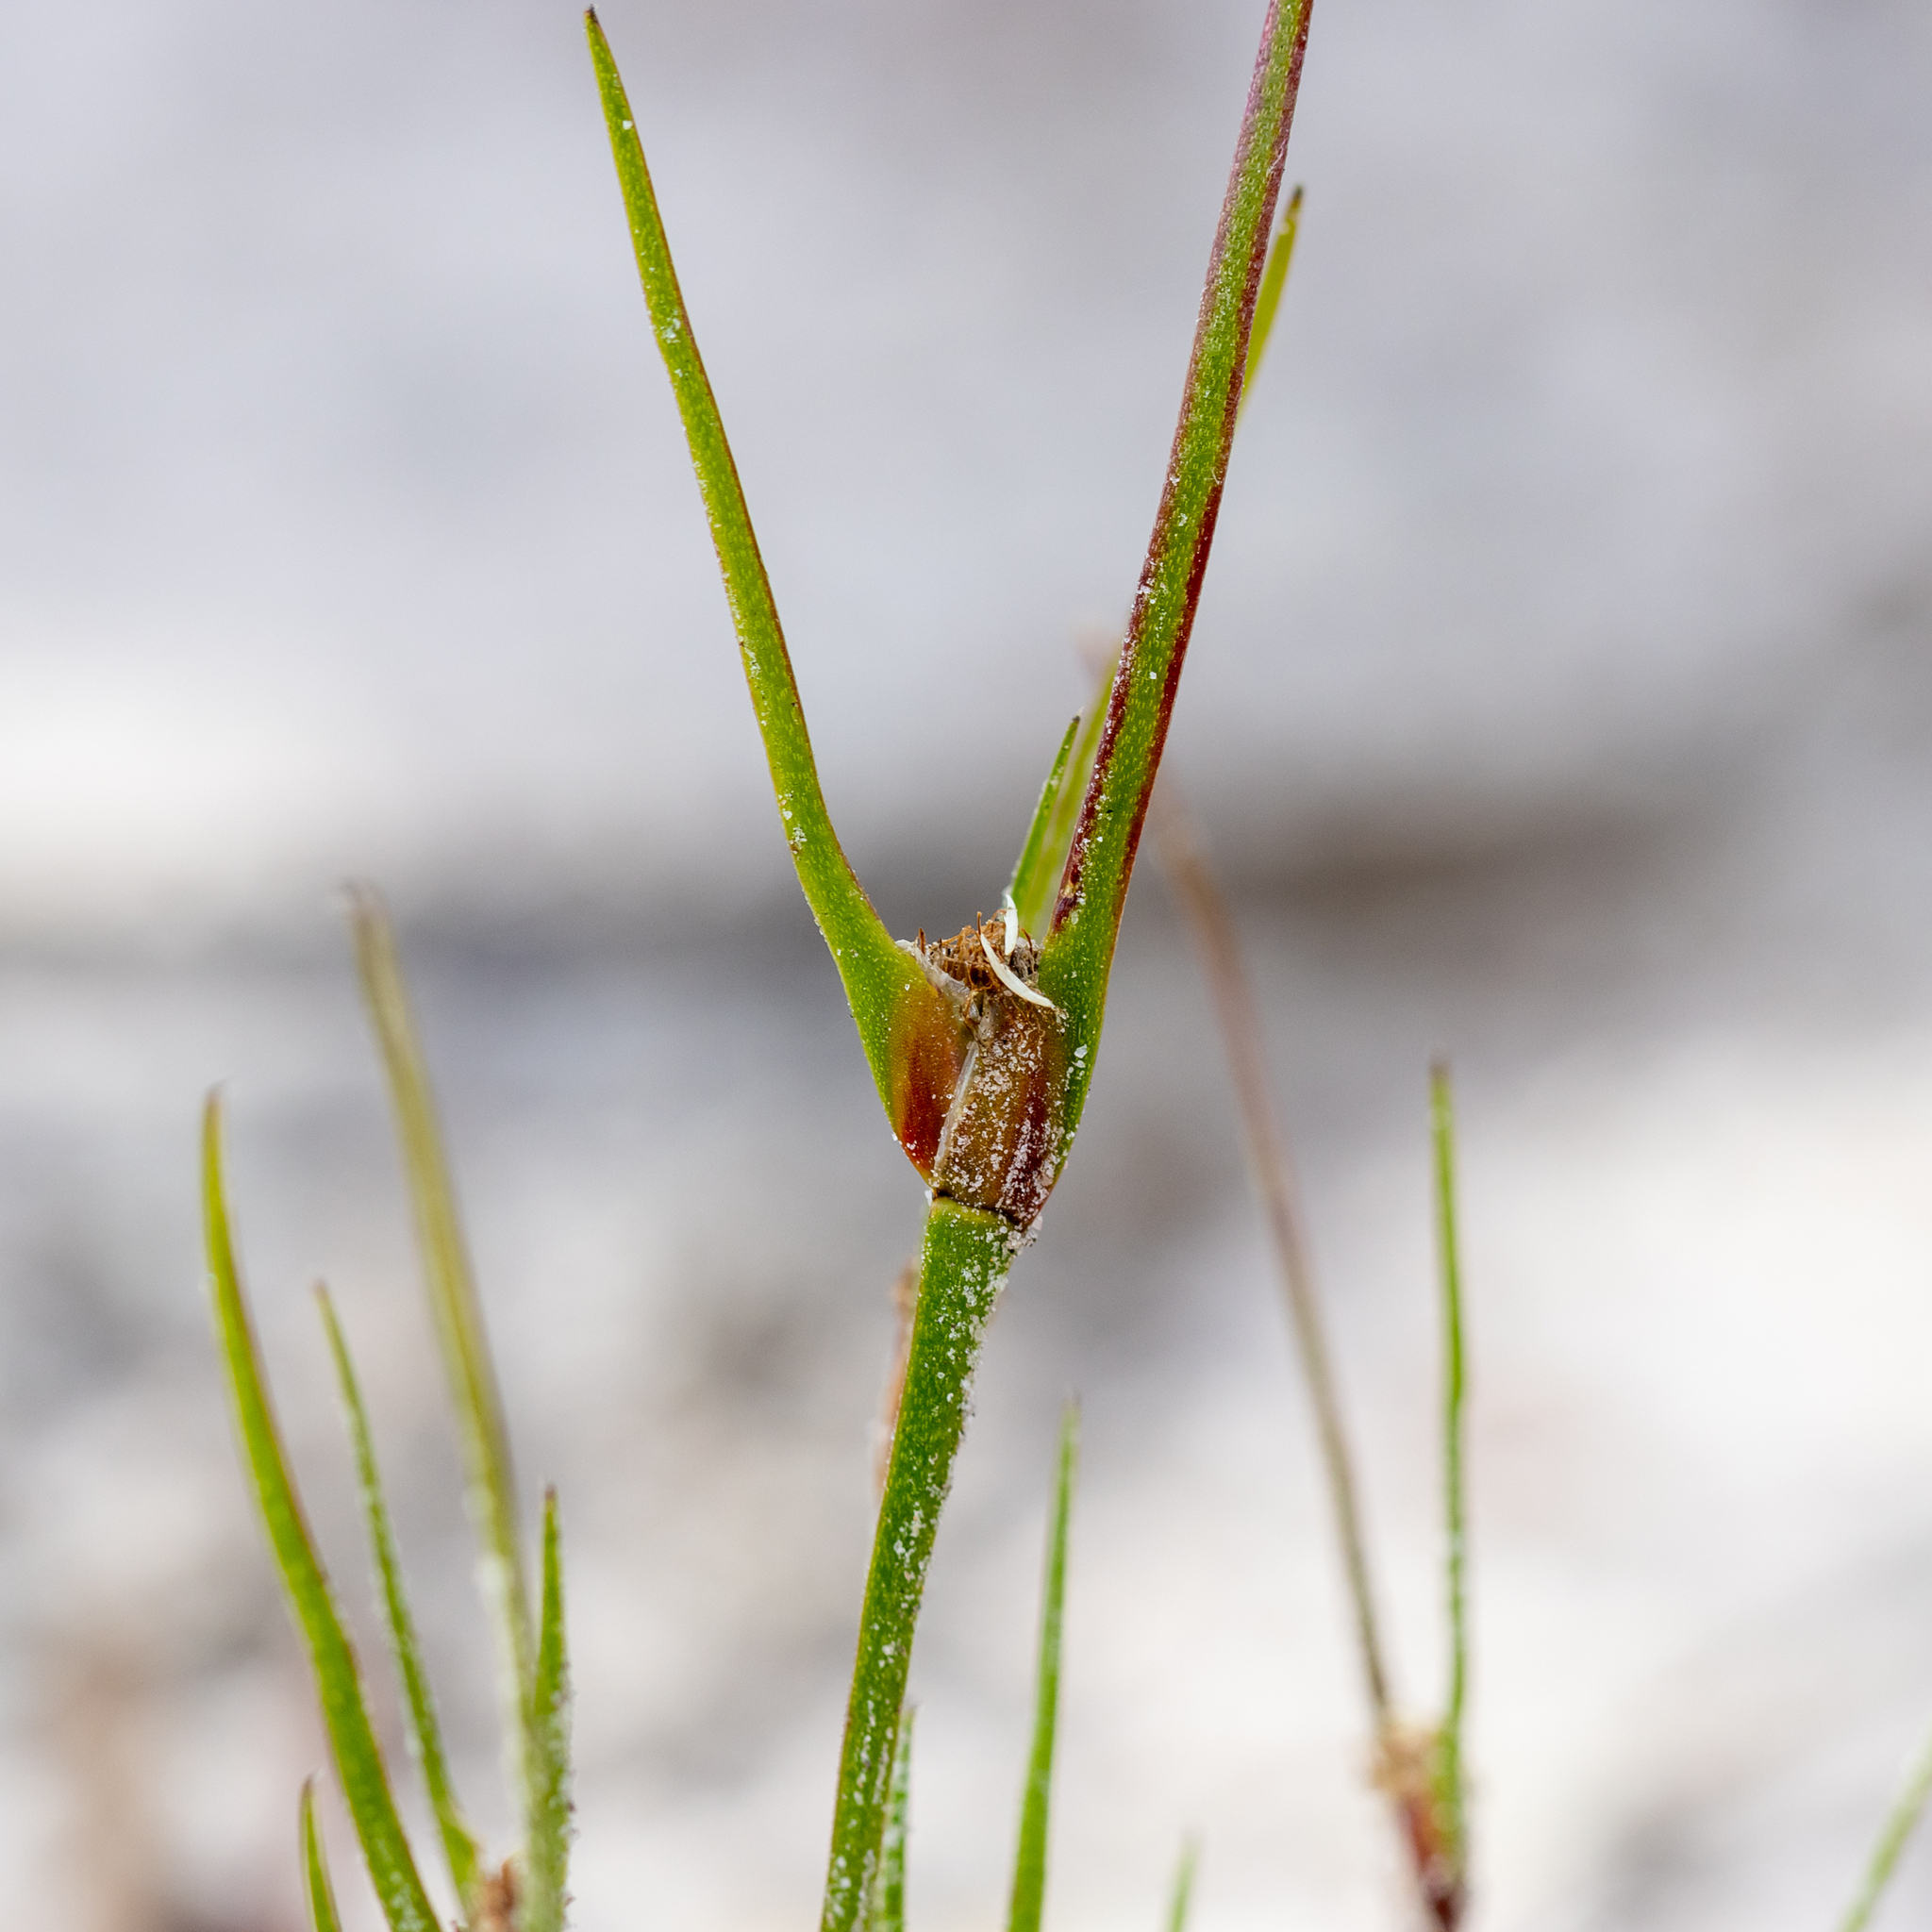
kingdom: Plantae
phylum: Tracheophyta
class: Liliopsida
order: Poales
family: Restionaceae
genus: Centrolepis
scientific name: Centrolepis aristata
